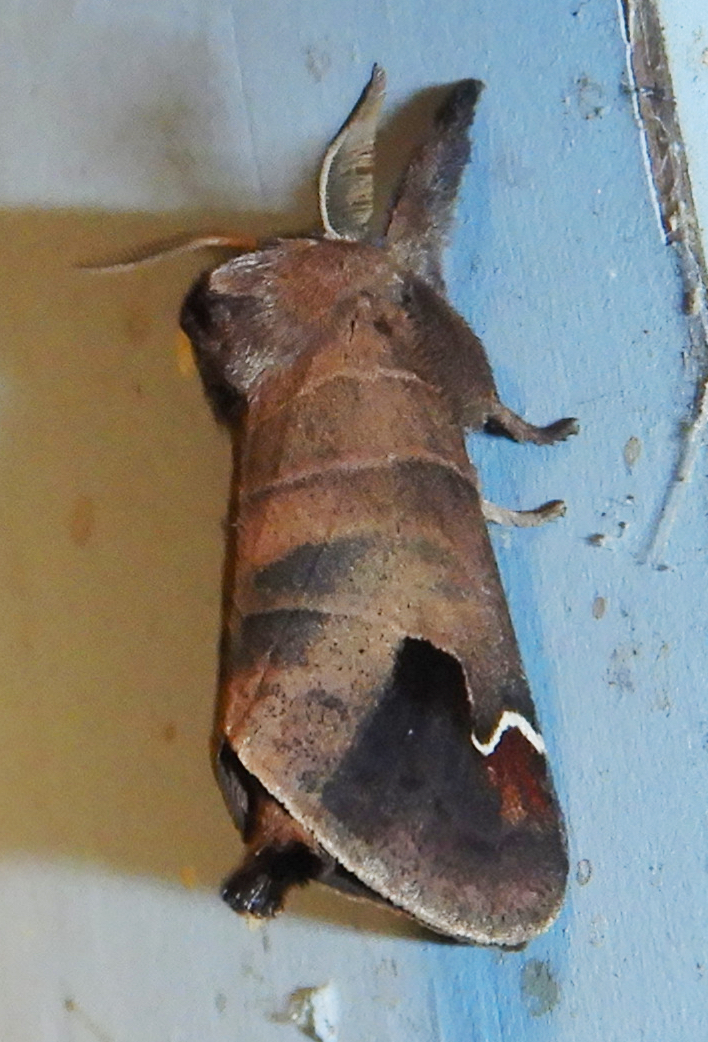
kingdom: Animalia
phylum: Arthropoda
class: Insecta
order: Lepidoptera
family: Notodontidae
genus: Clostera
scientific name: Clostera albosigma
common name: Sigmoid prominent
